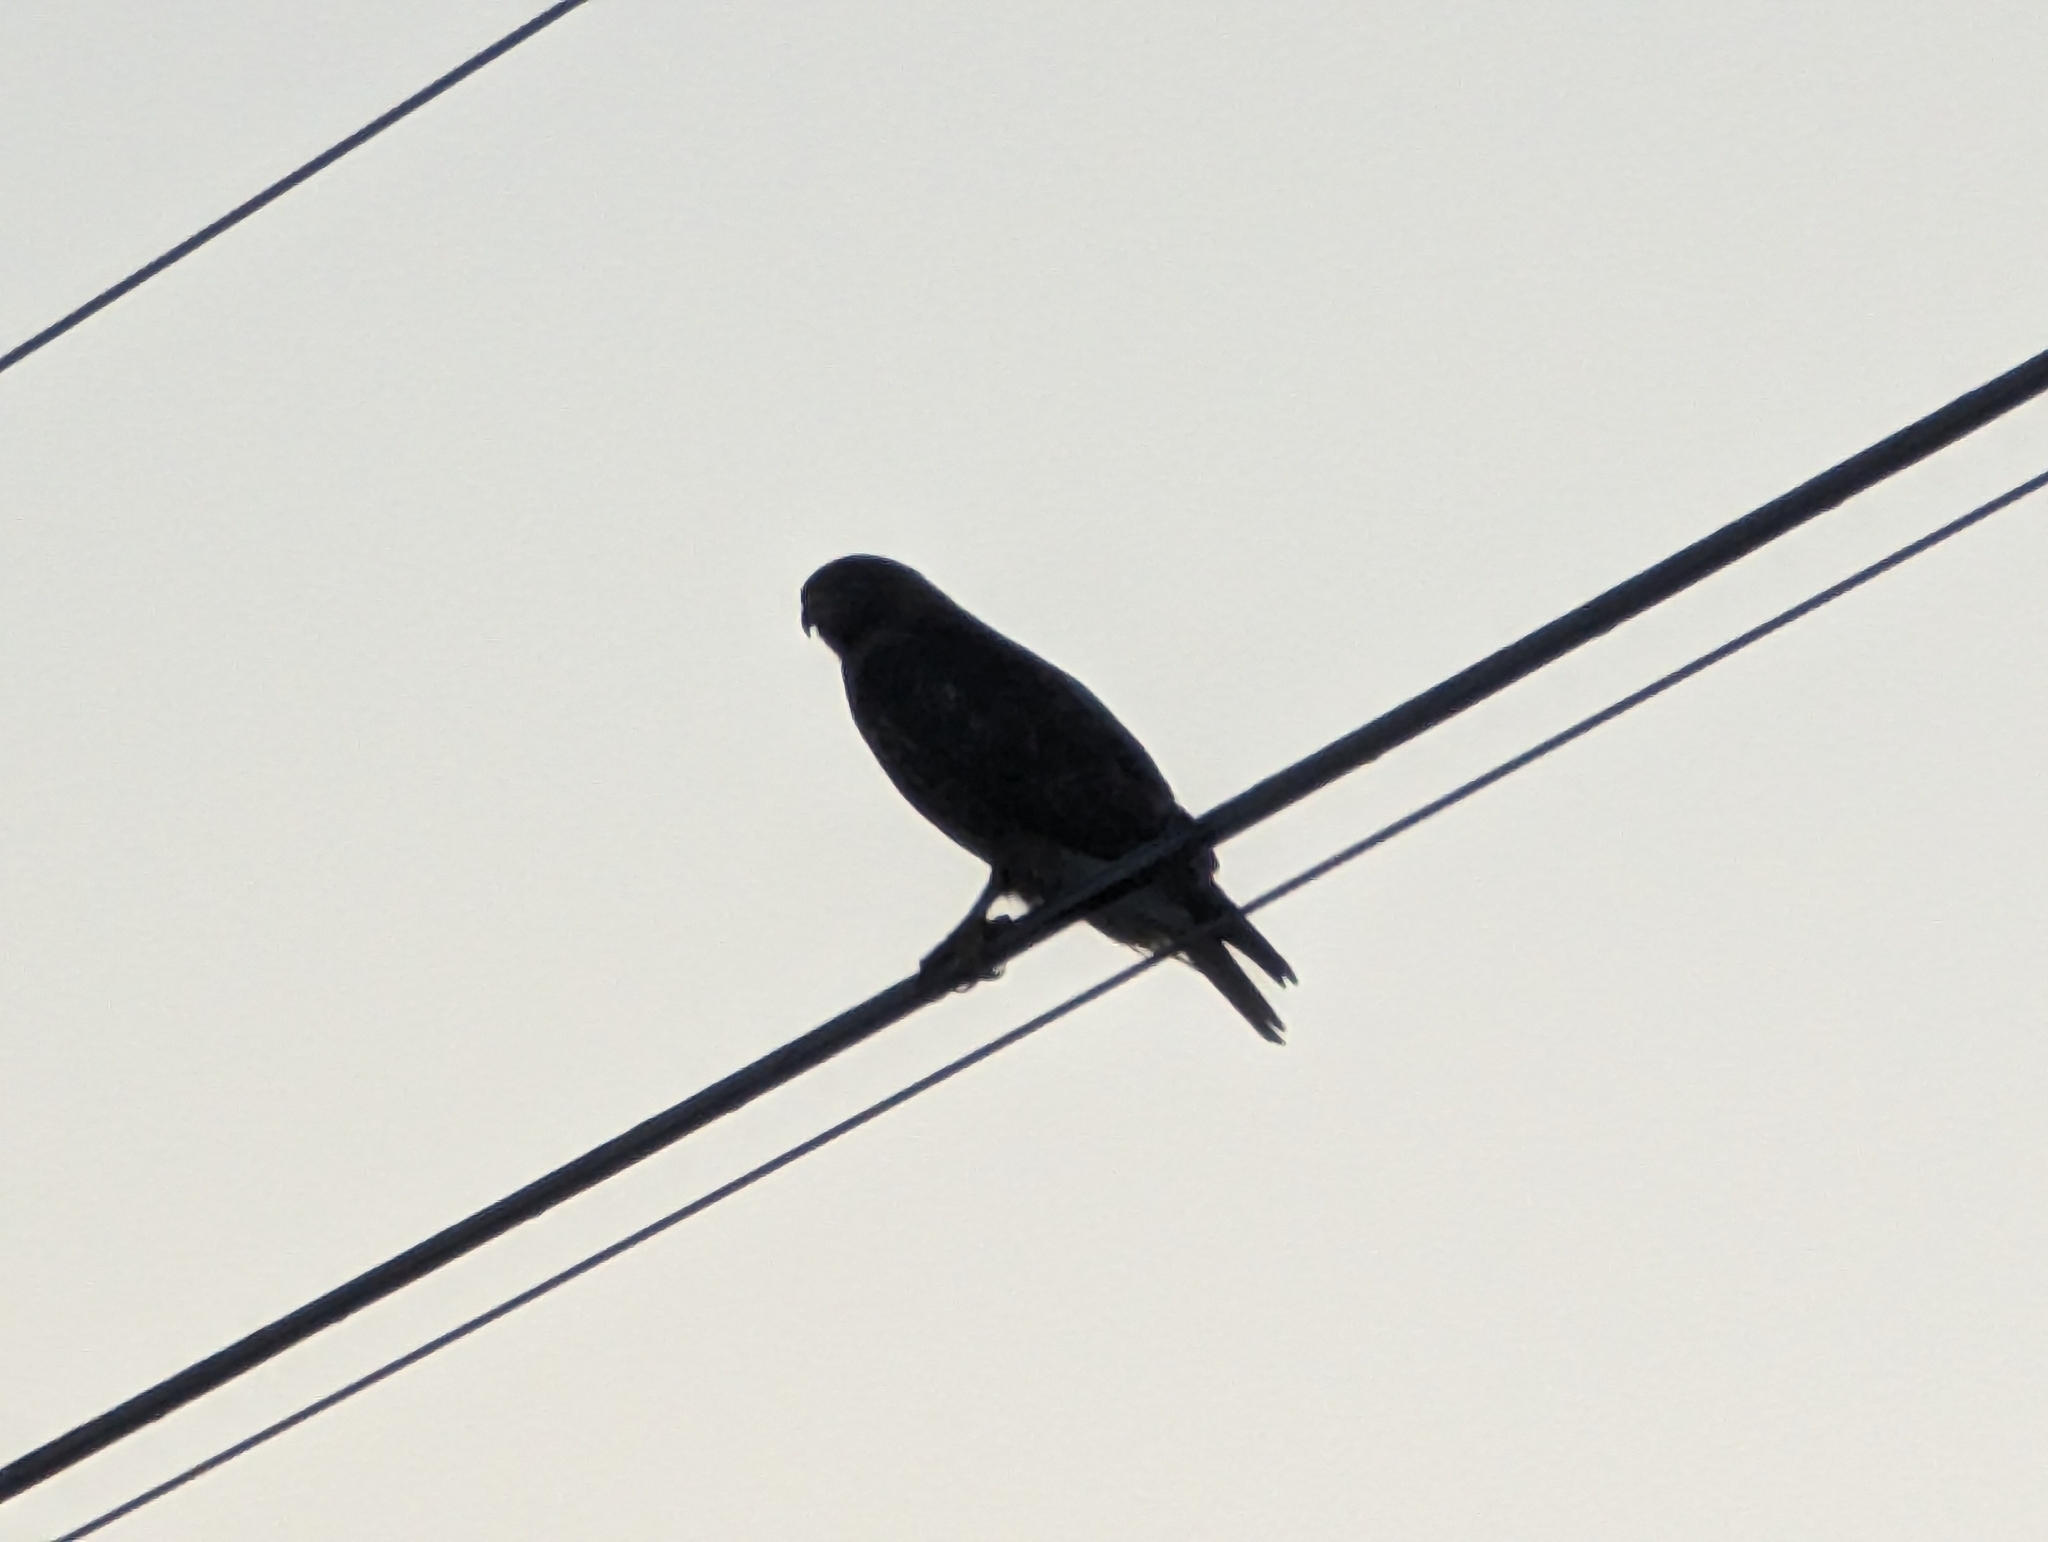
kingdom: Animalia
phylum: Chordata
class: Aves
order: Accipitriformes
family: Accipitridae
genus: Buteo
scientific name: Buteo jamaicensis
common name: Red-tailed hawk
